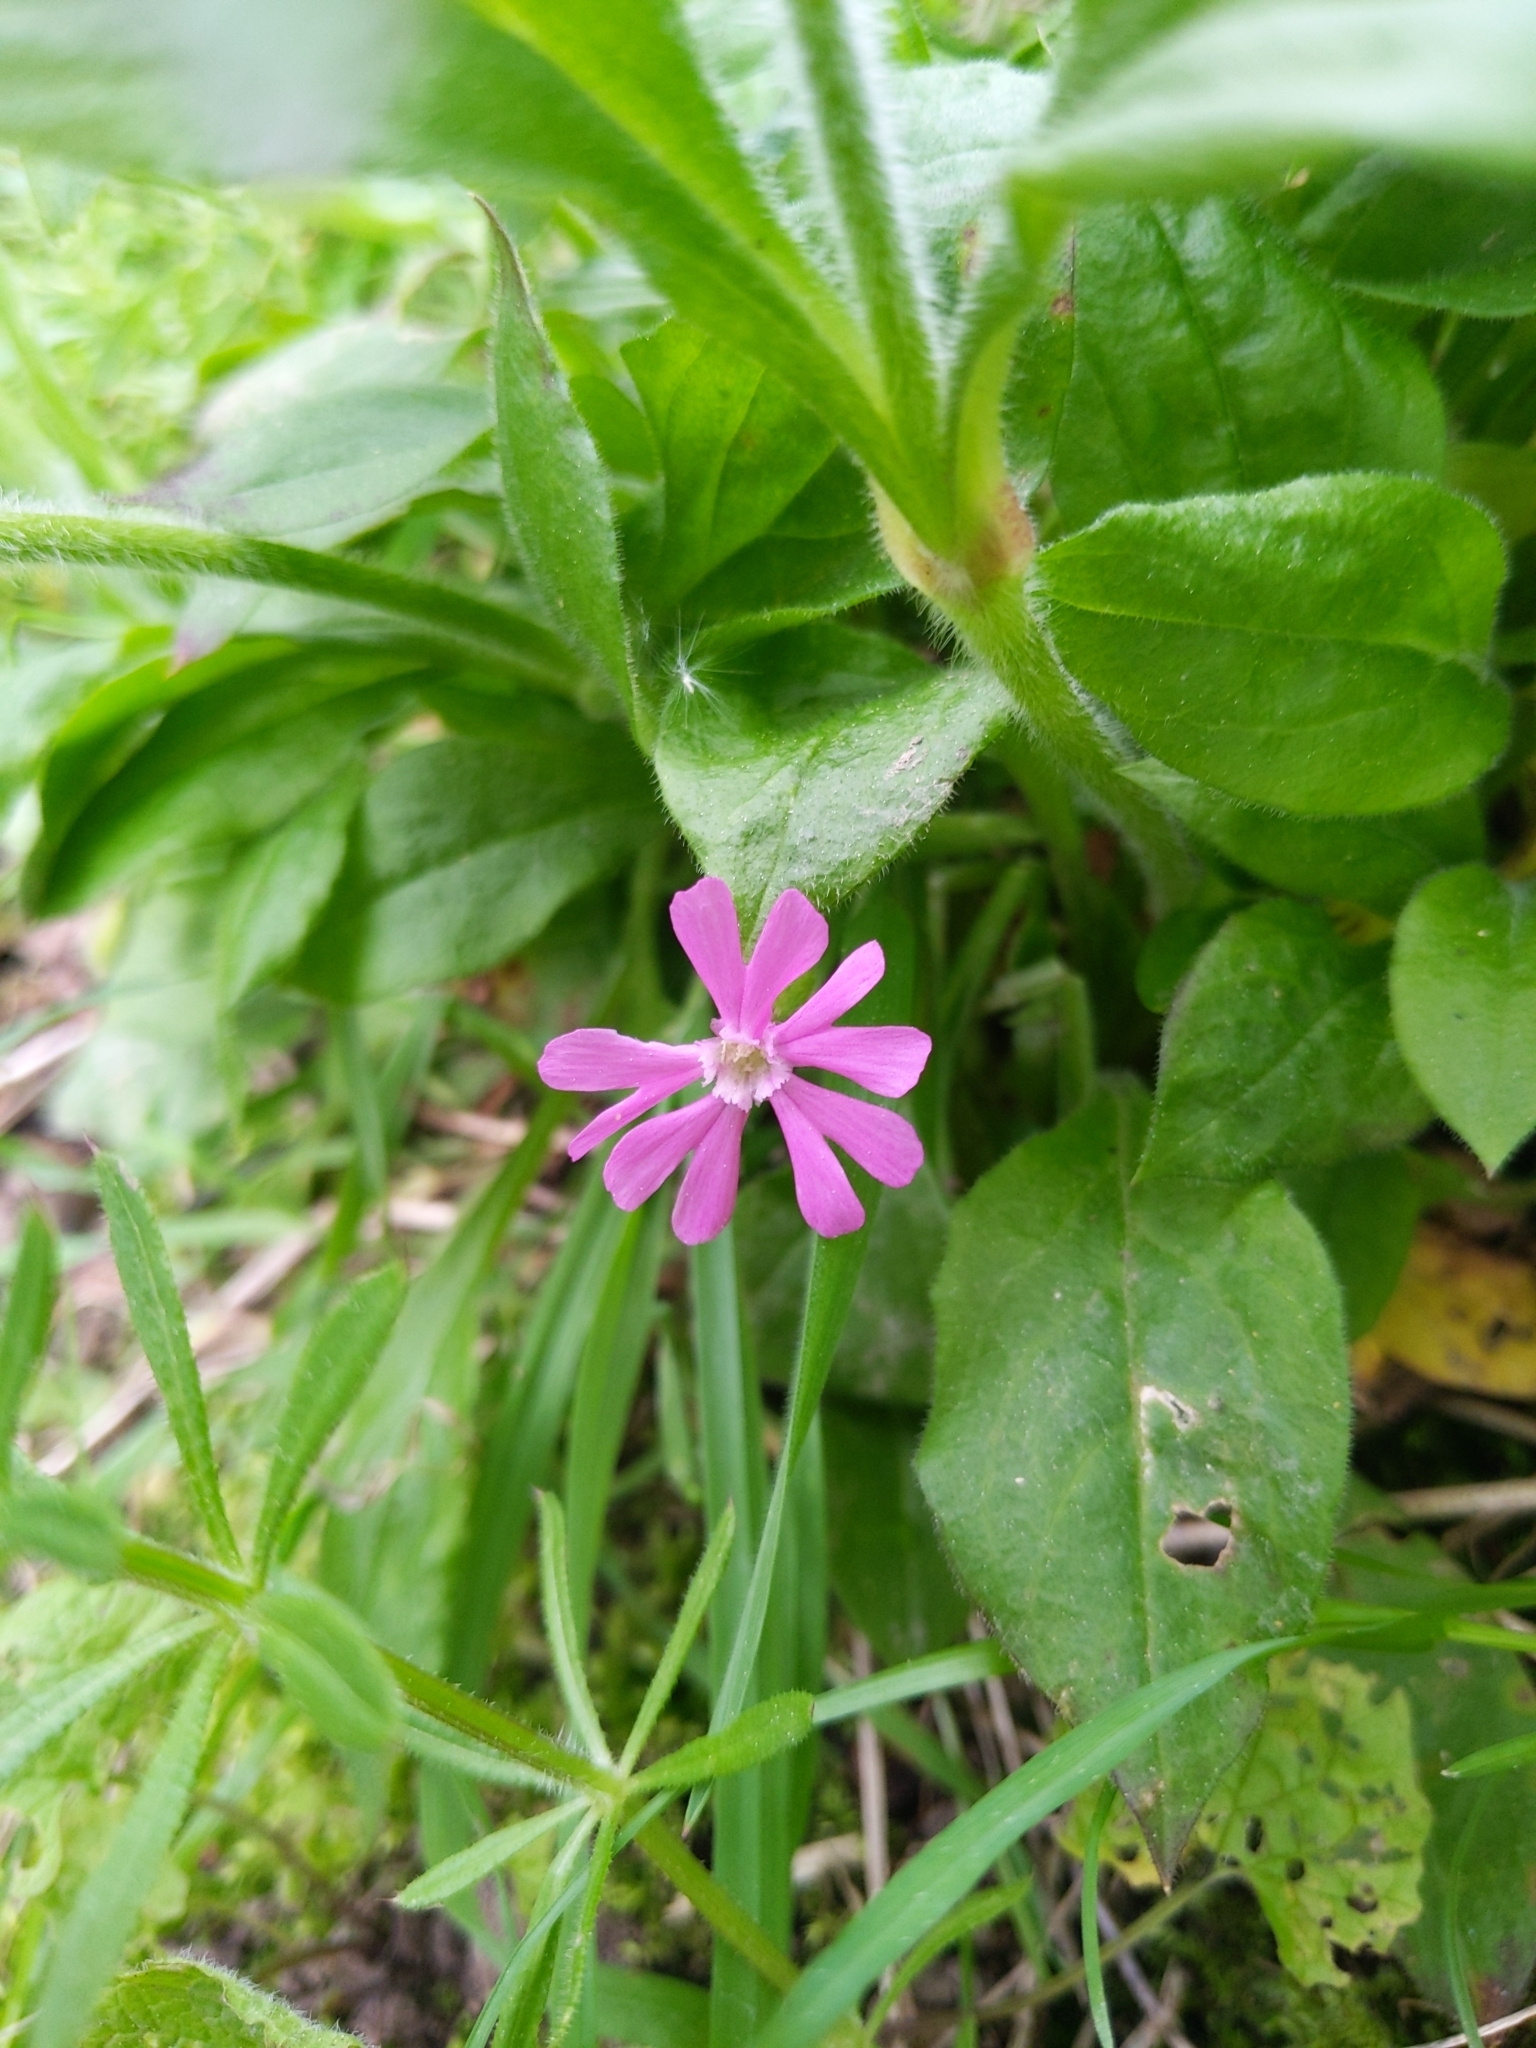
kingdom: Plantae
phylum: Tracheophyta
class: Magnoliopsida
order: Caryophyllales
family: Caryophyllaceae
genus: Silene
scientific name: Silene dioica
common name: Red campion
